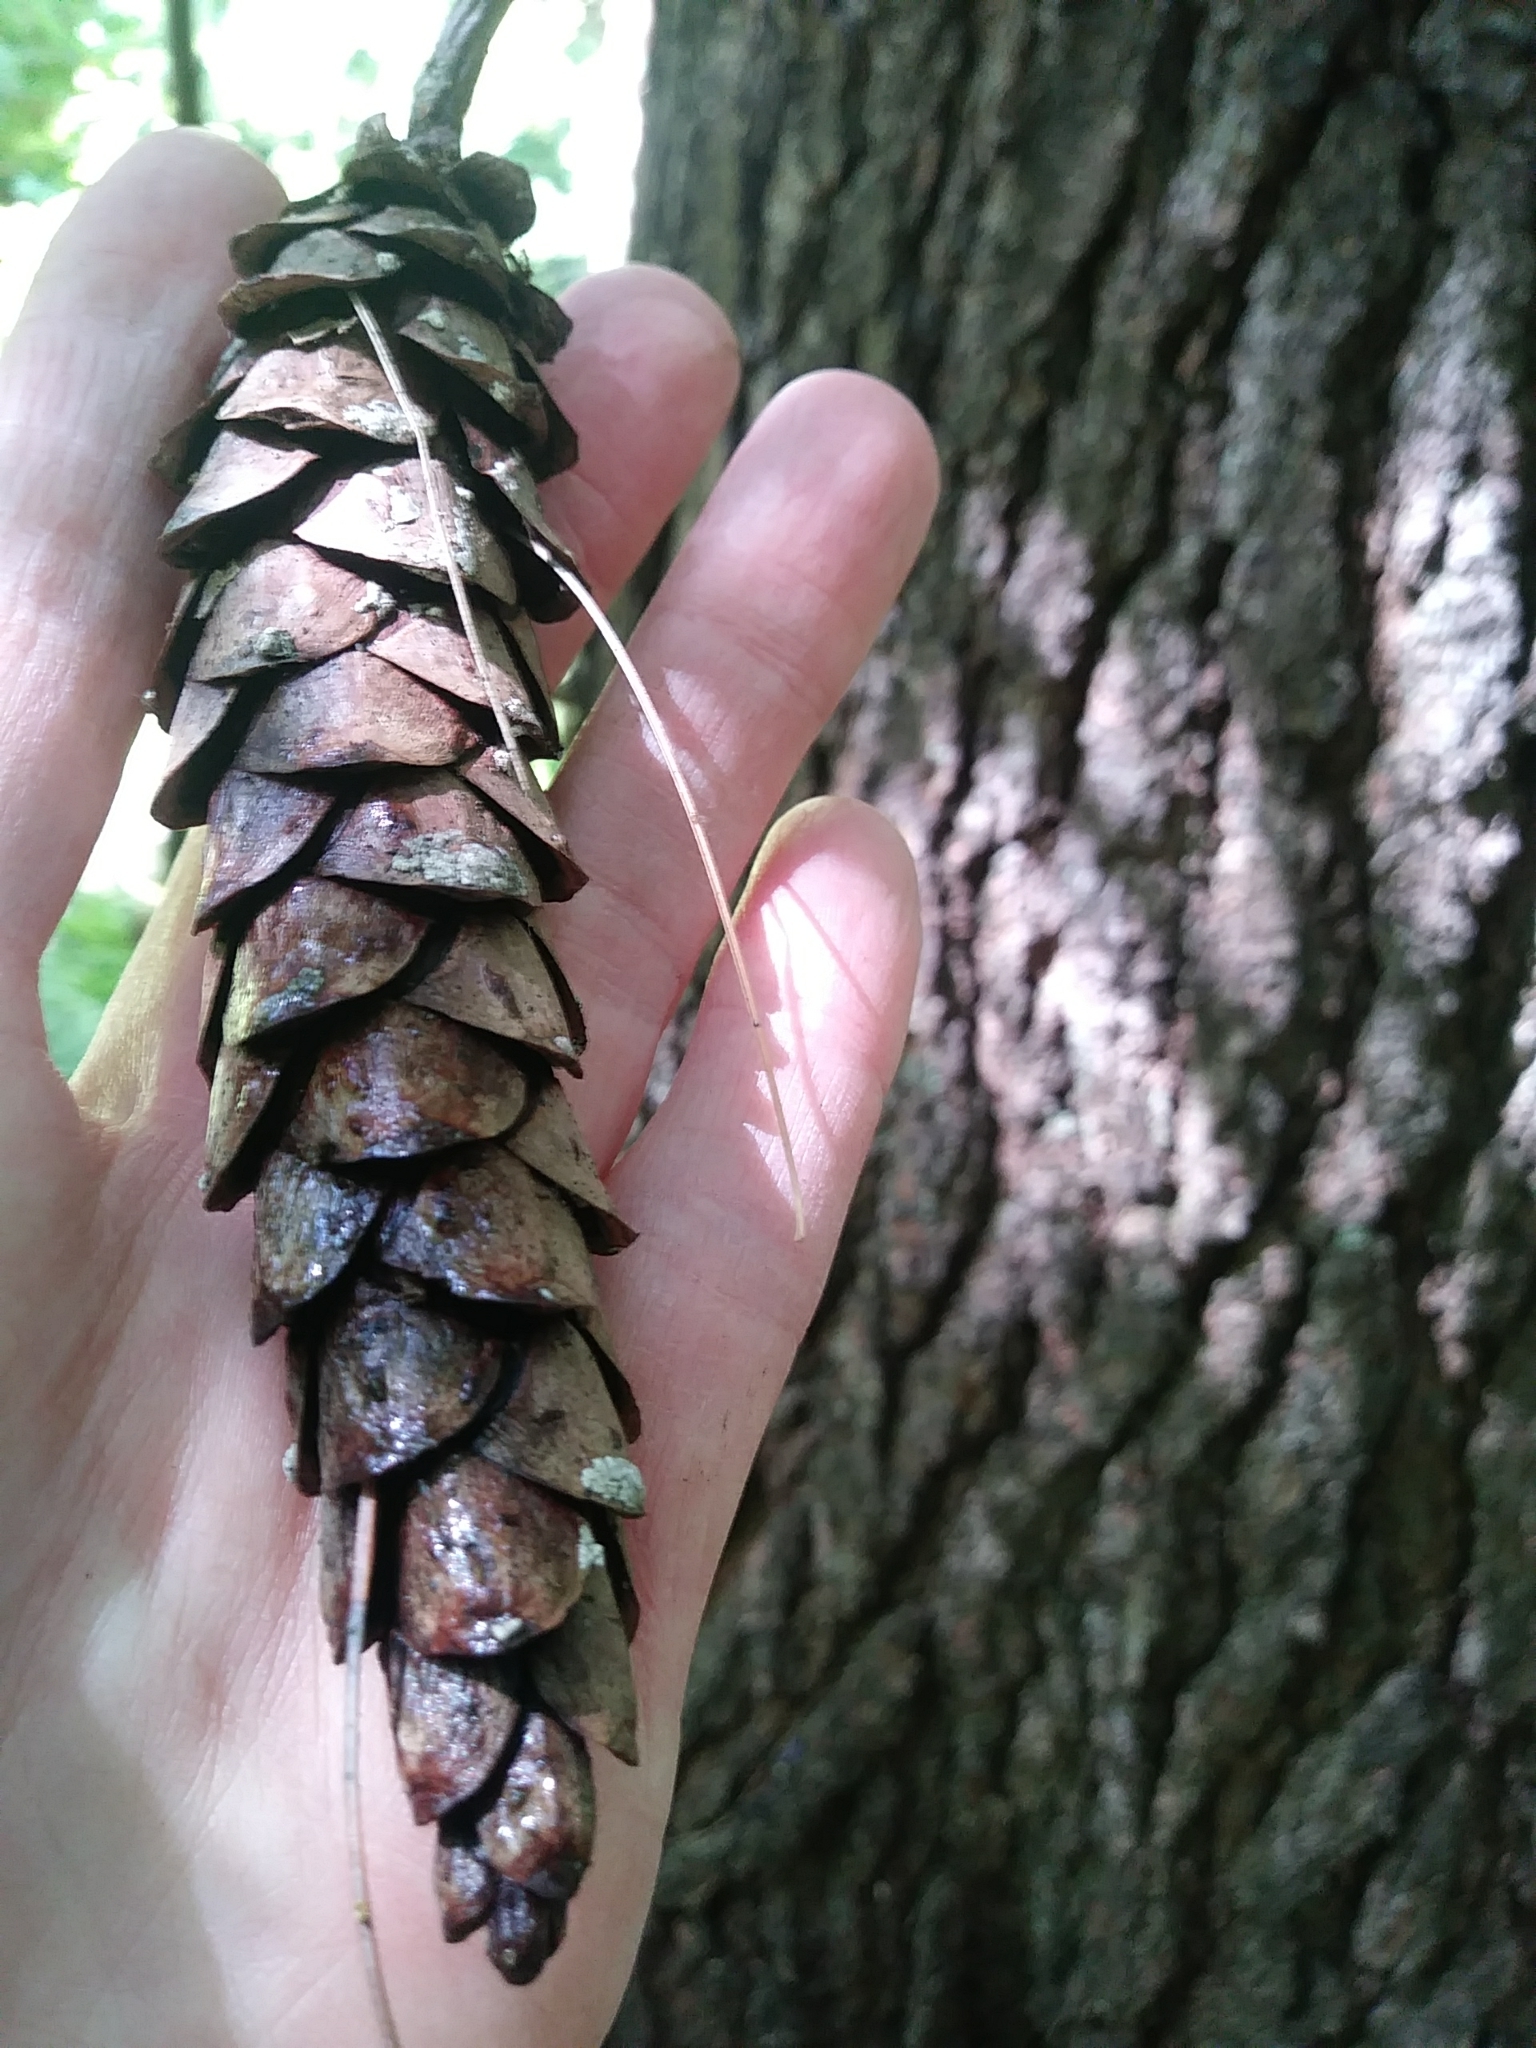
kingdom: Plantae
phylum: Tracheophyta
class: Pinopsida
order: Pinales
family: Pinaceae
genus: Pinus
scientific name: Pinus strobus
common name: Weymouth pine
